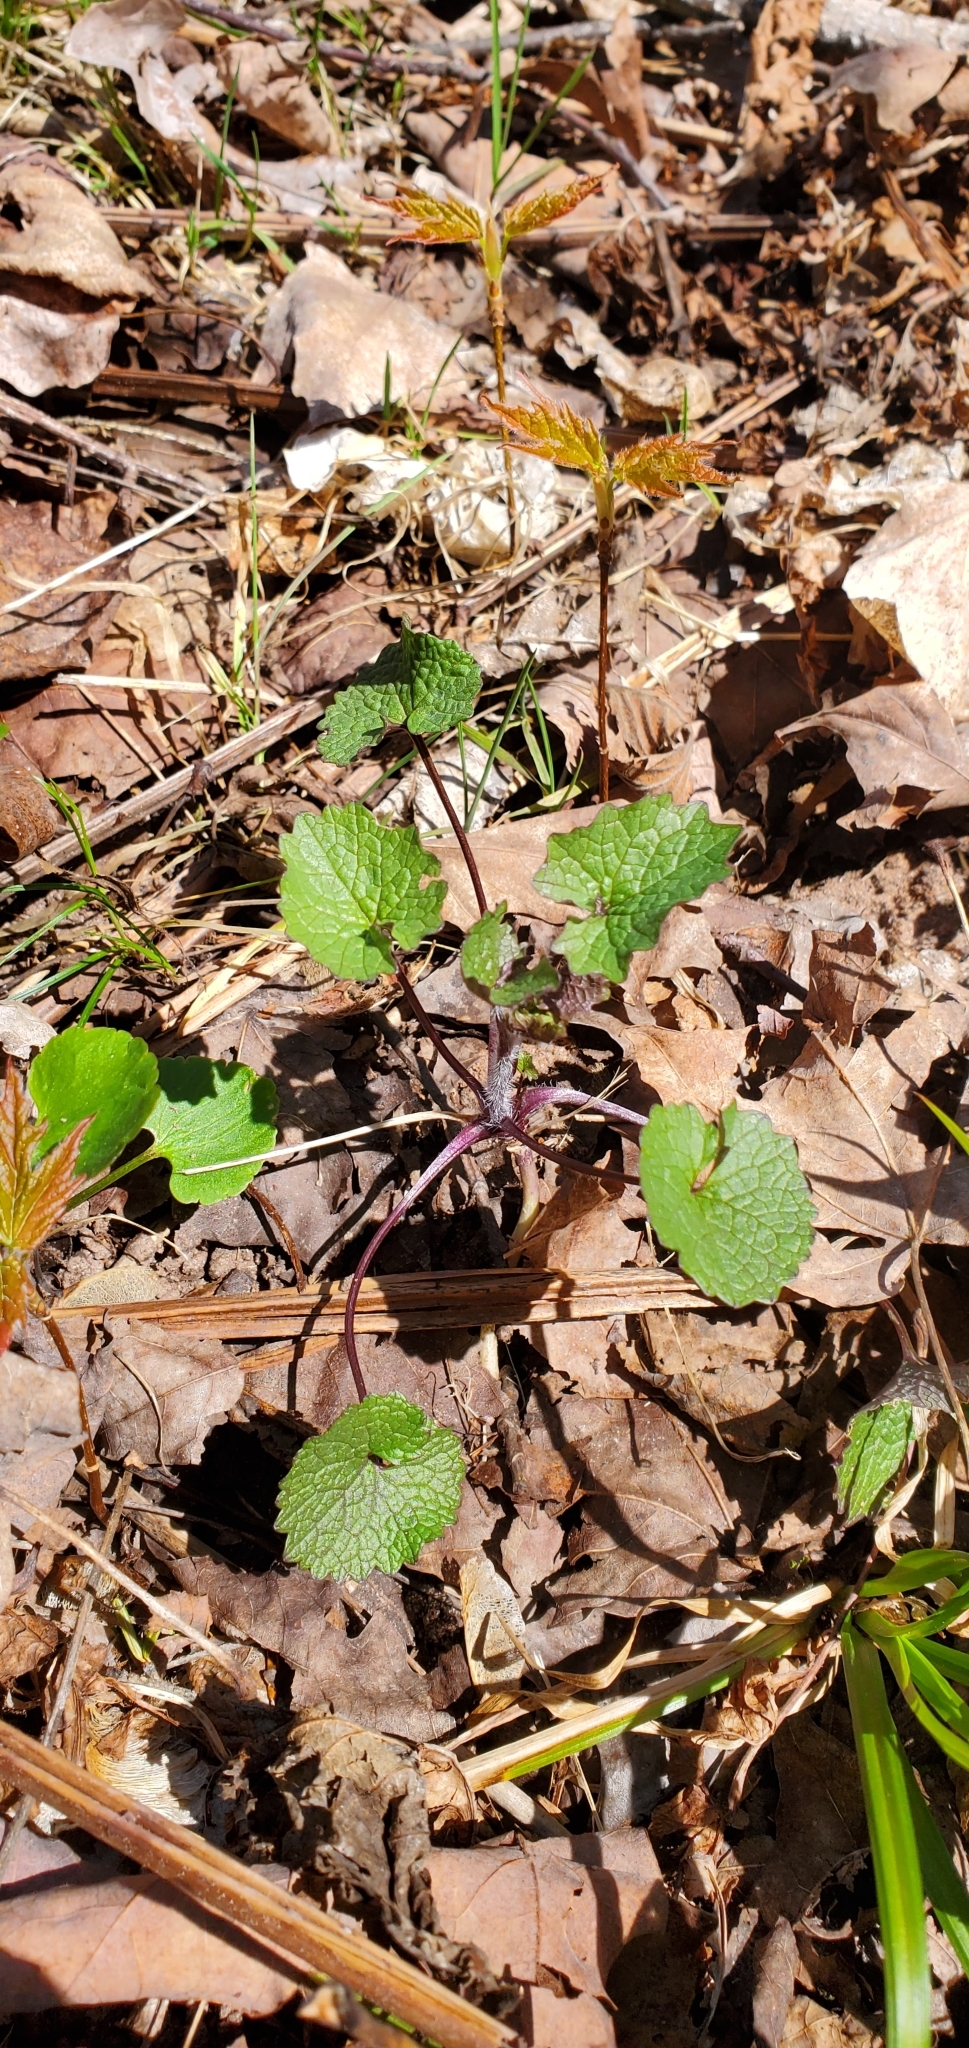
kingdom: Plantae
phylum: Tracheophyta
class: Magnoliopsida
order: Brassicales
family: Brassicaceae
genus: Alliaria
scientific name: Alliaria petiolata
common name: Garlic mustard
